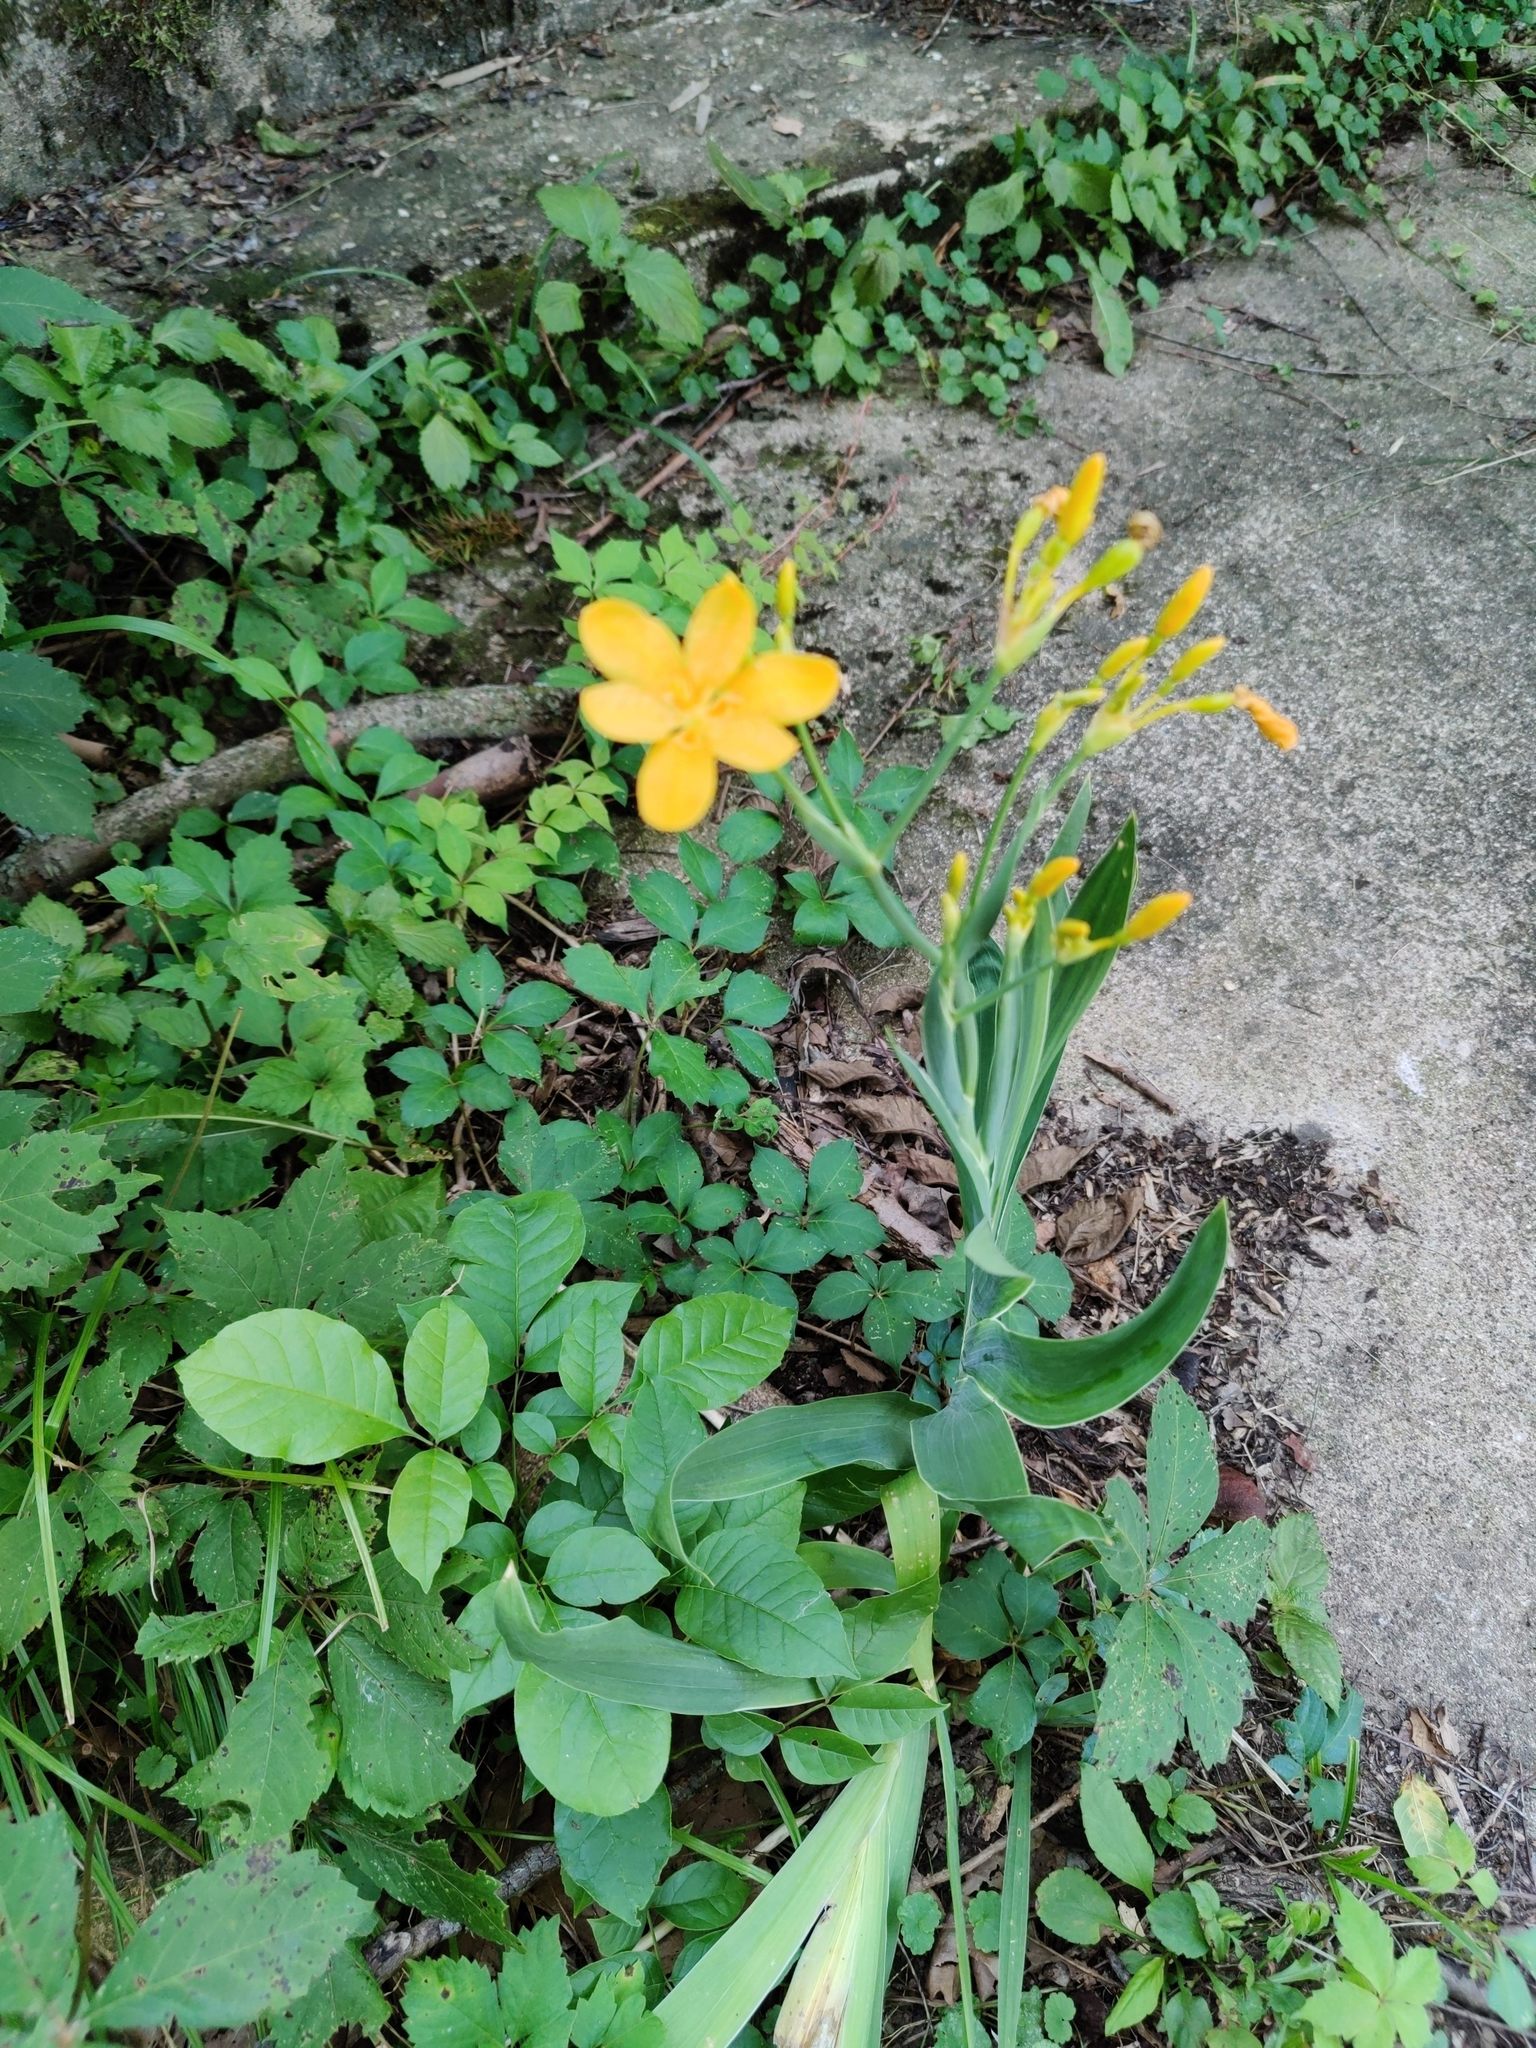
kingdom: Plantae
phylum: Tracheophyta
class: Liliopsida
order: Asparagales
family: Iridaceae
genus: Iris
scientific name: Iris domestica
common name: Belamcanda
